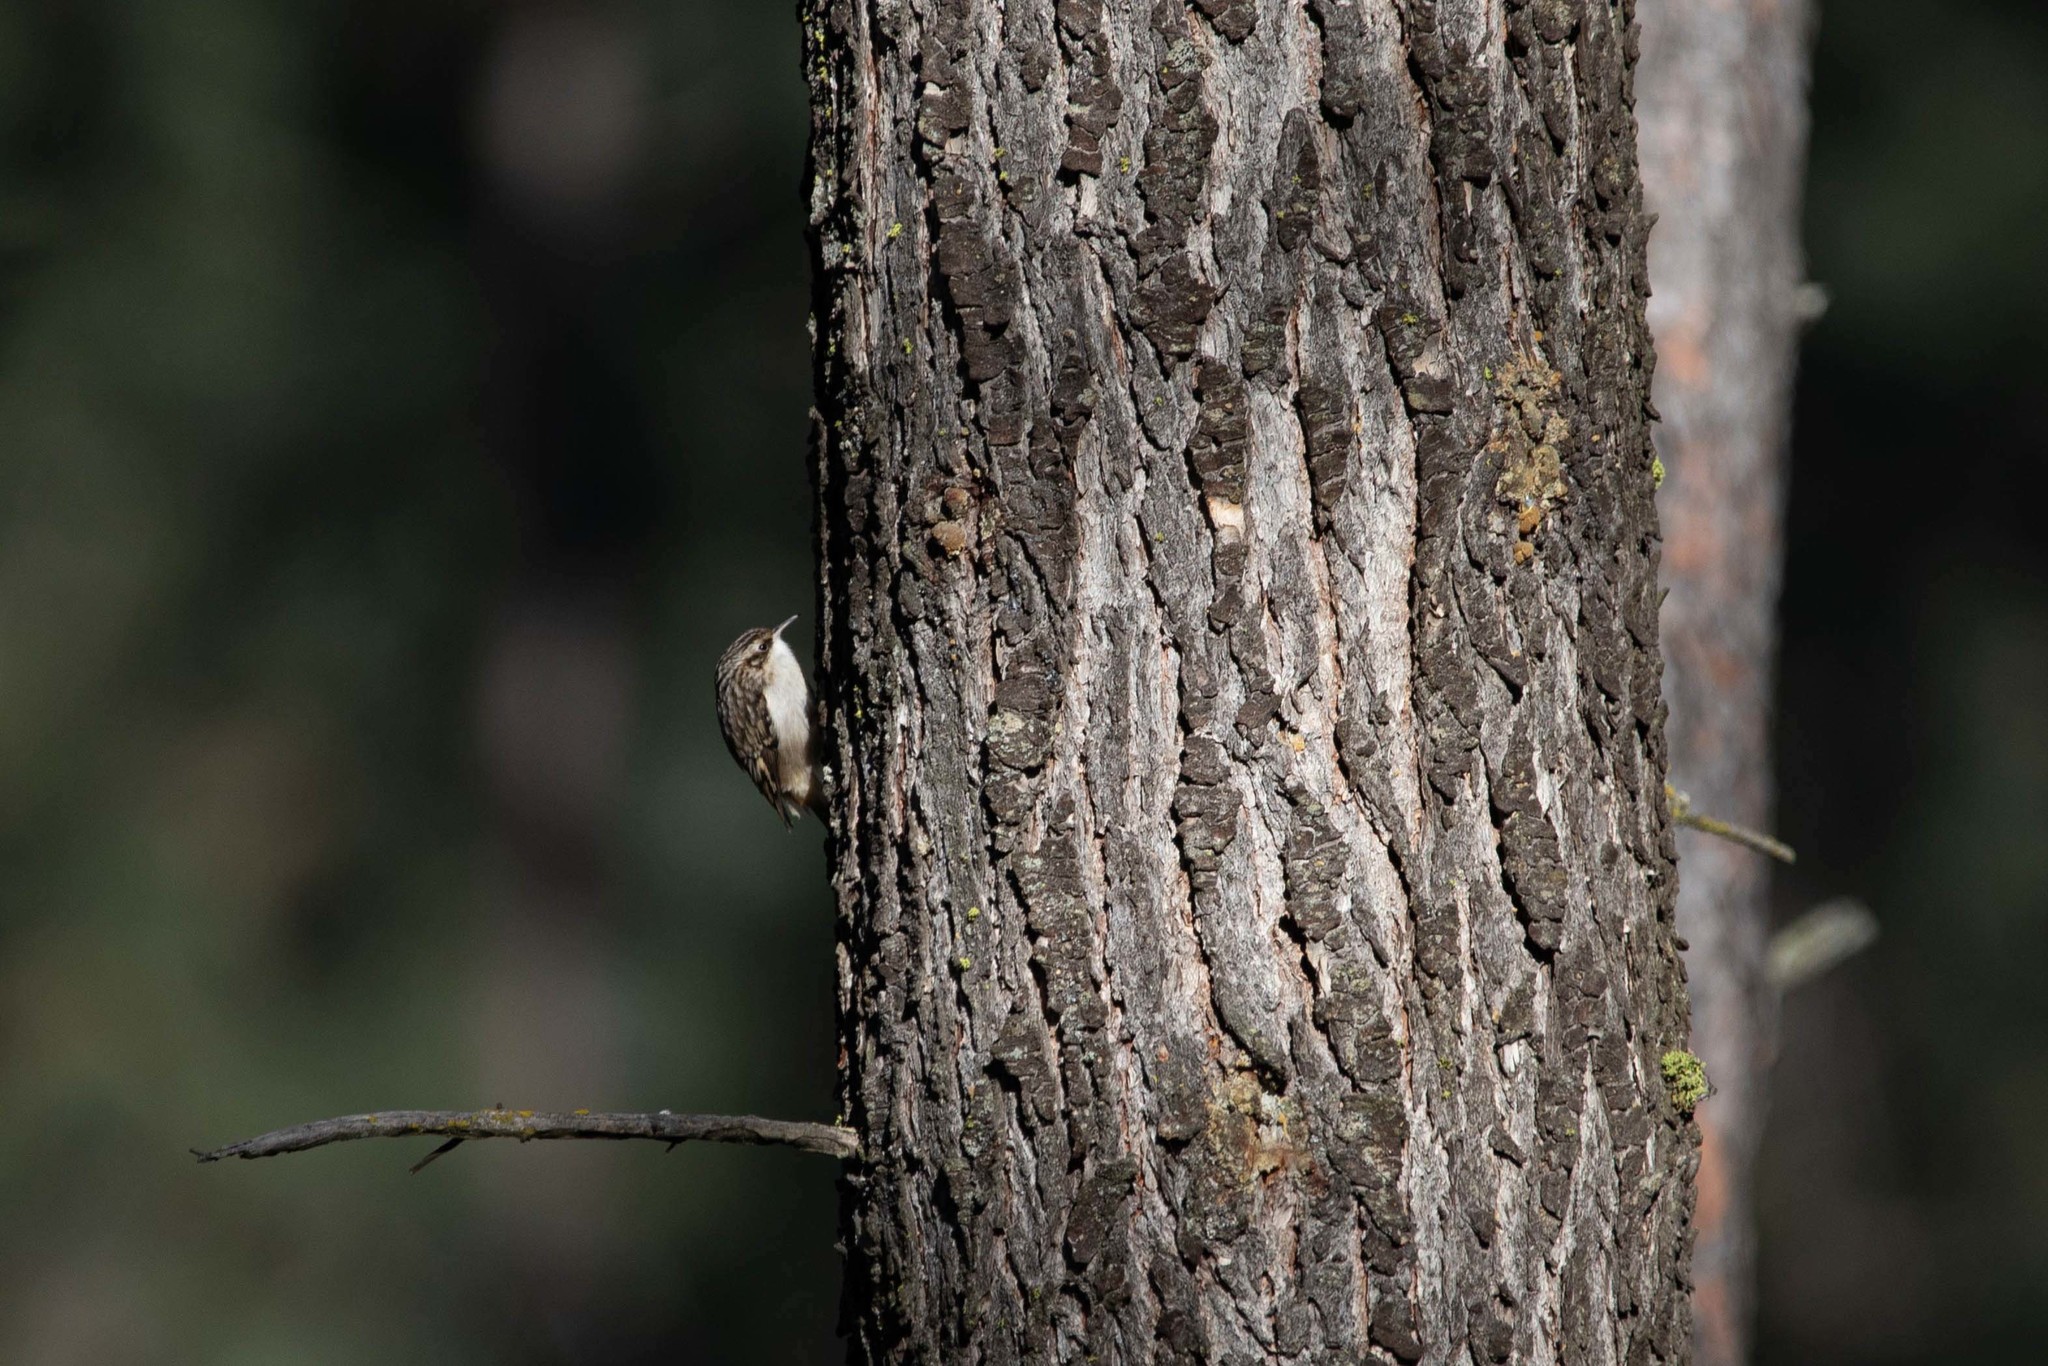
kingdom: Animalia
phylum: Chordata
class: Aves
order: Passeriformes
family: Certhiidae
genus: Certhia
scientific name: Certhia americana
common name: Brown creeper
